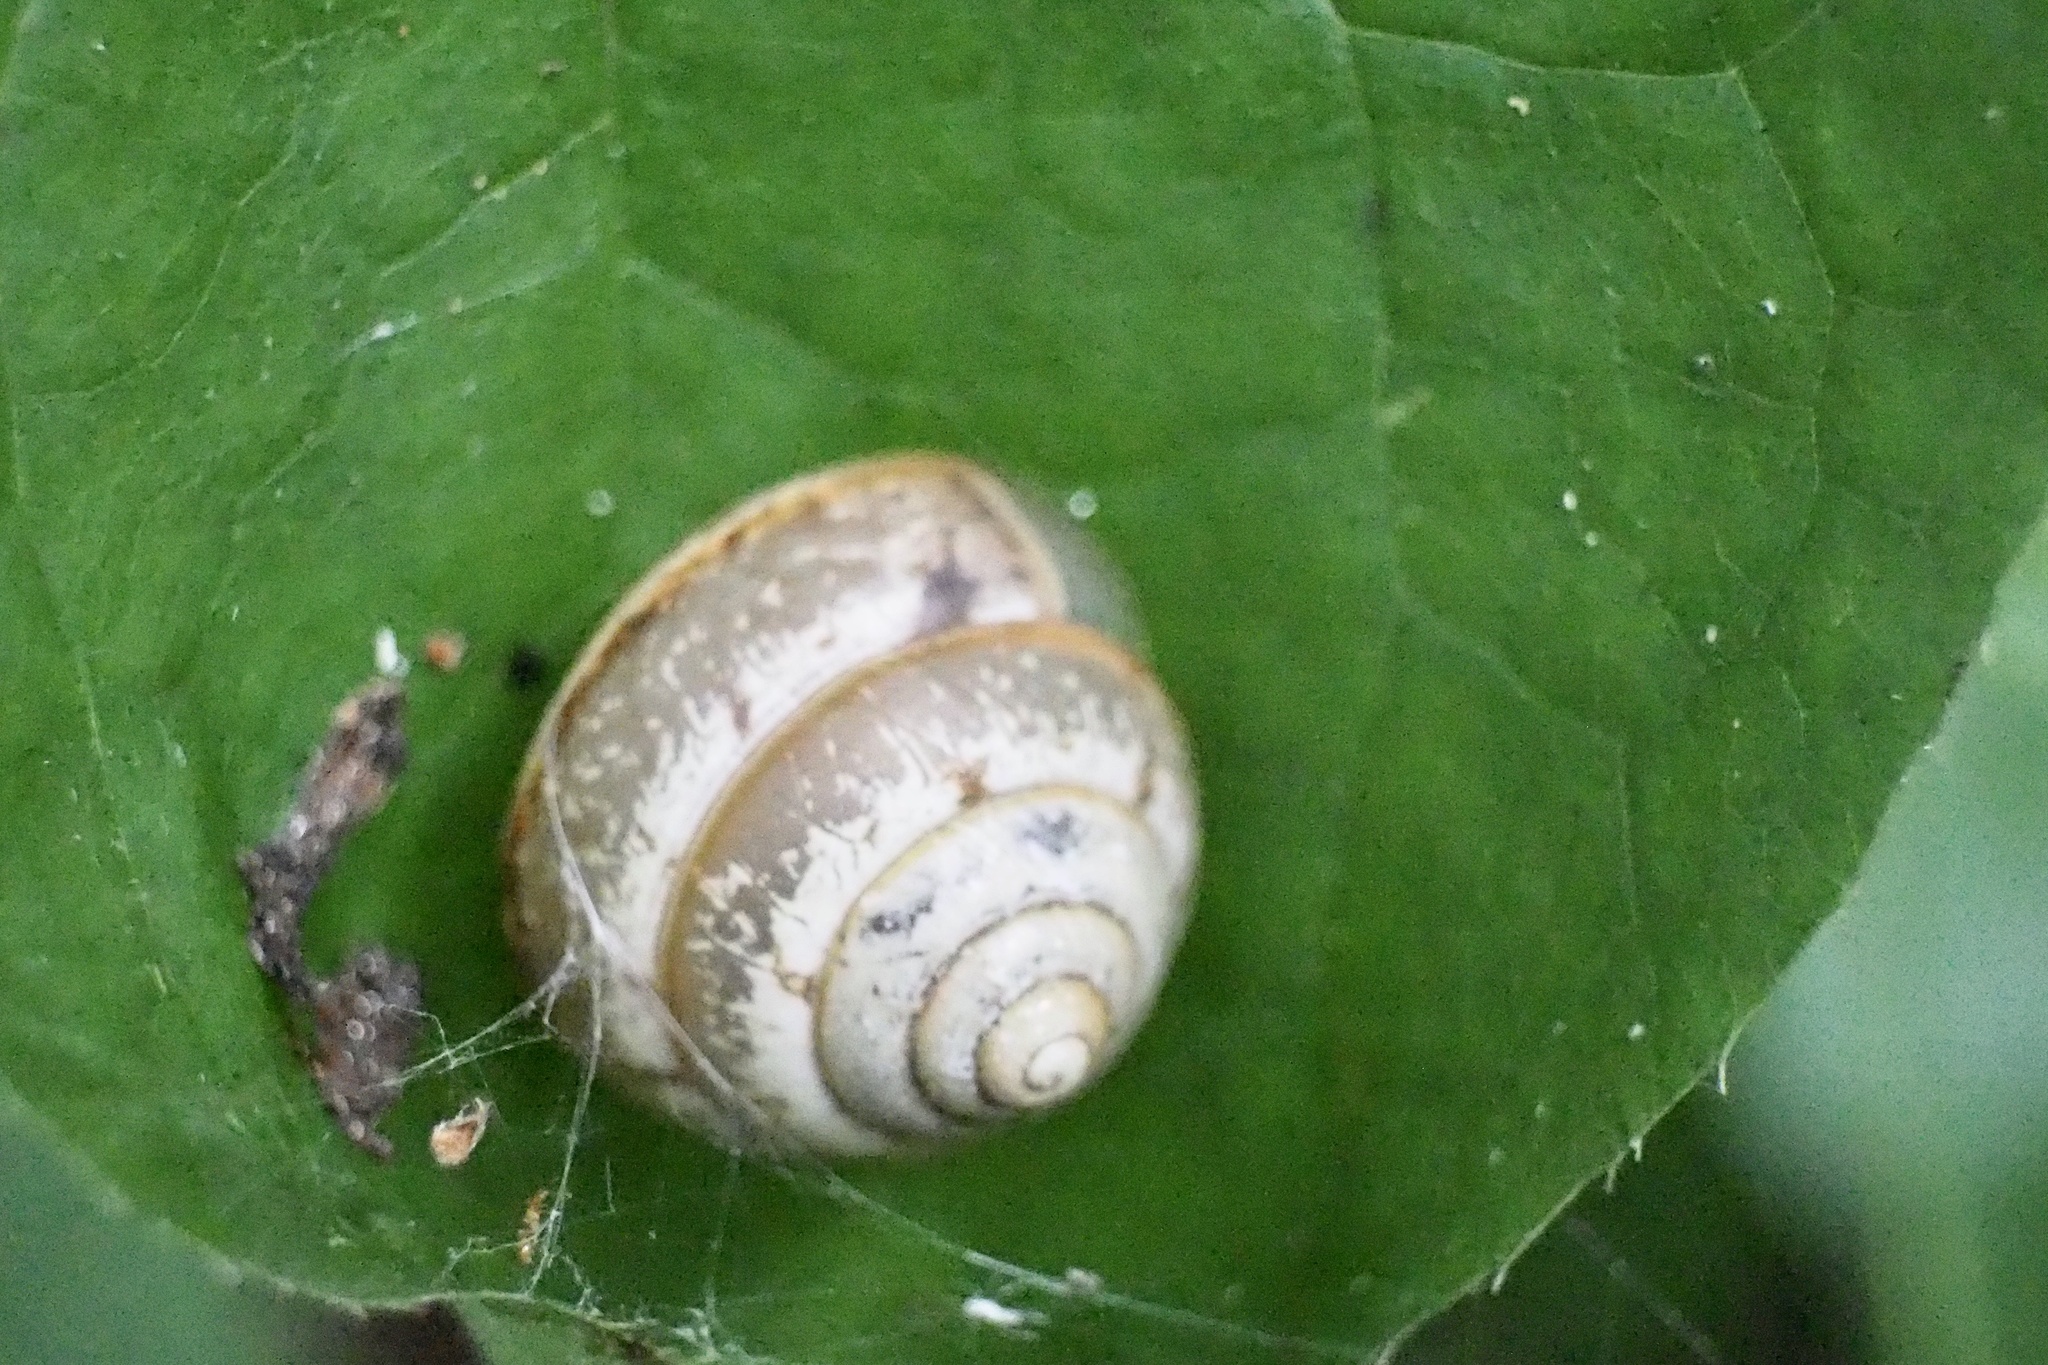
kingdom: Animalia
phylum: Mollusca
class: Gastropoda
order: Stylommatophora
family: Camaenidae
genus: Satsuma
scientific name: Satsuma japonica
